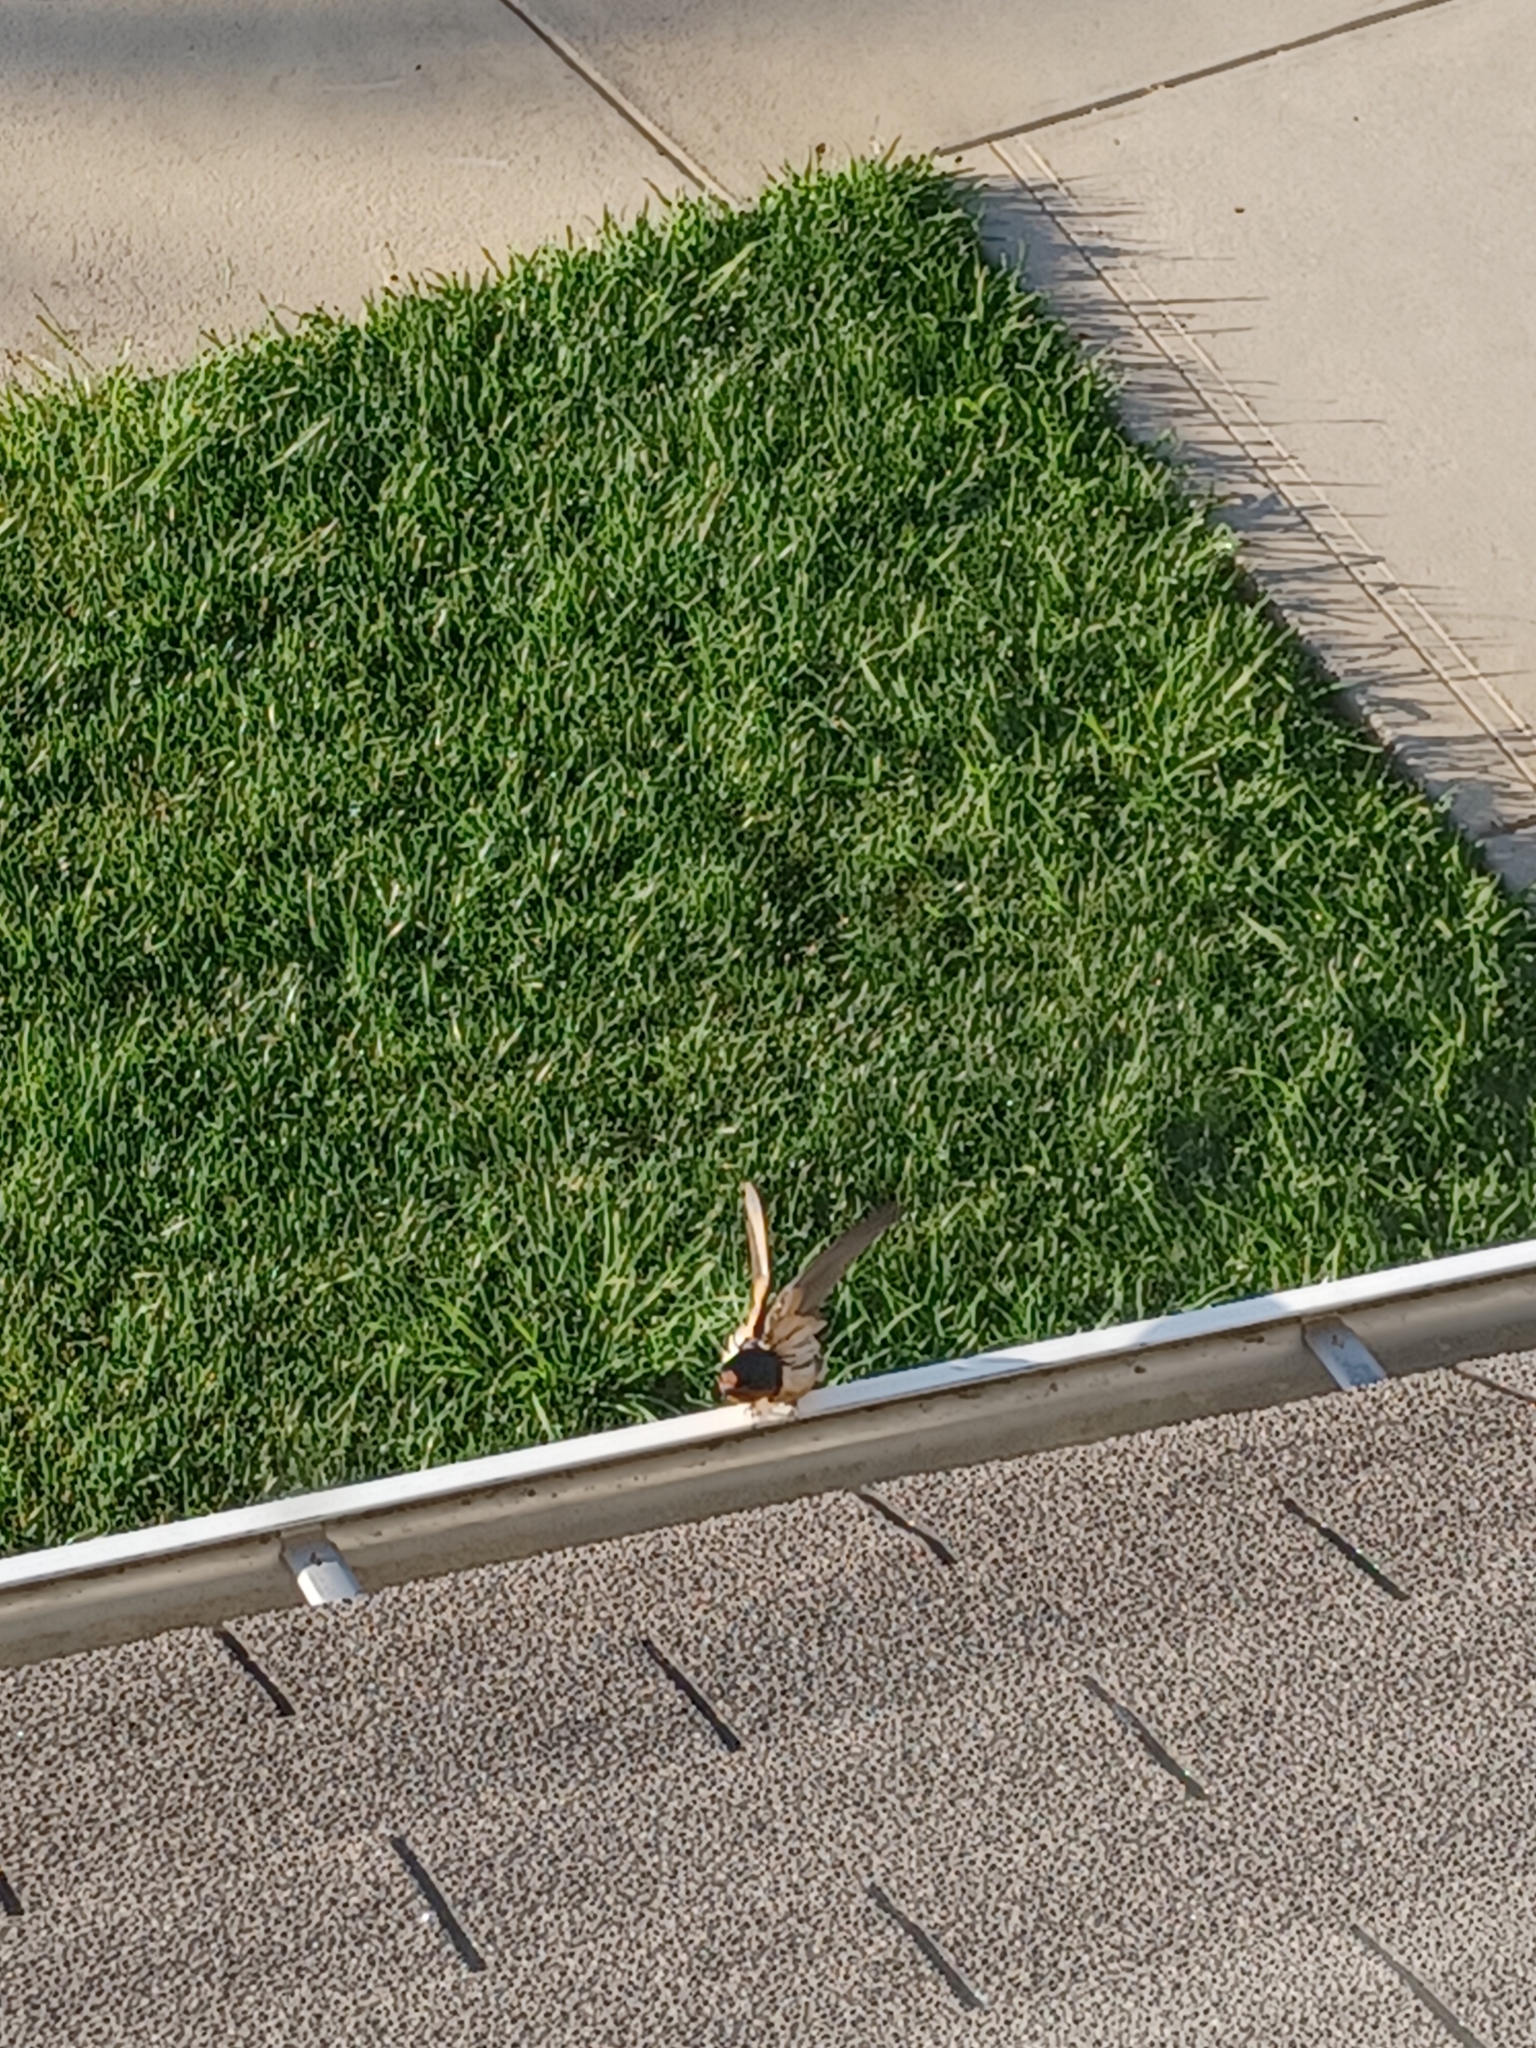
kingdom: Animalia
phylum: Chordata
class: Aves
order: Passeriformes
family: Hirundinidae
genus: Hirundo
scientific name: Hirundo rustica
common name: Barn swallow
